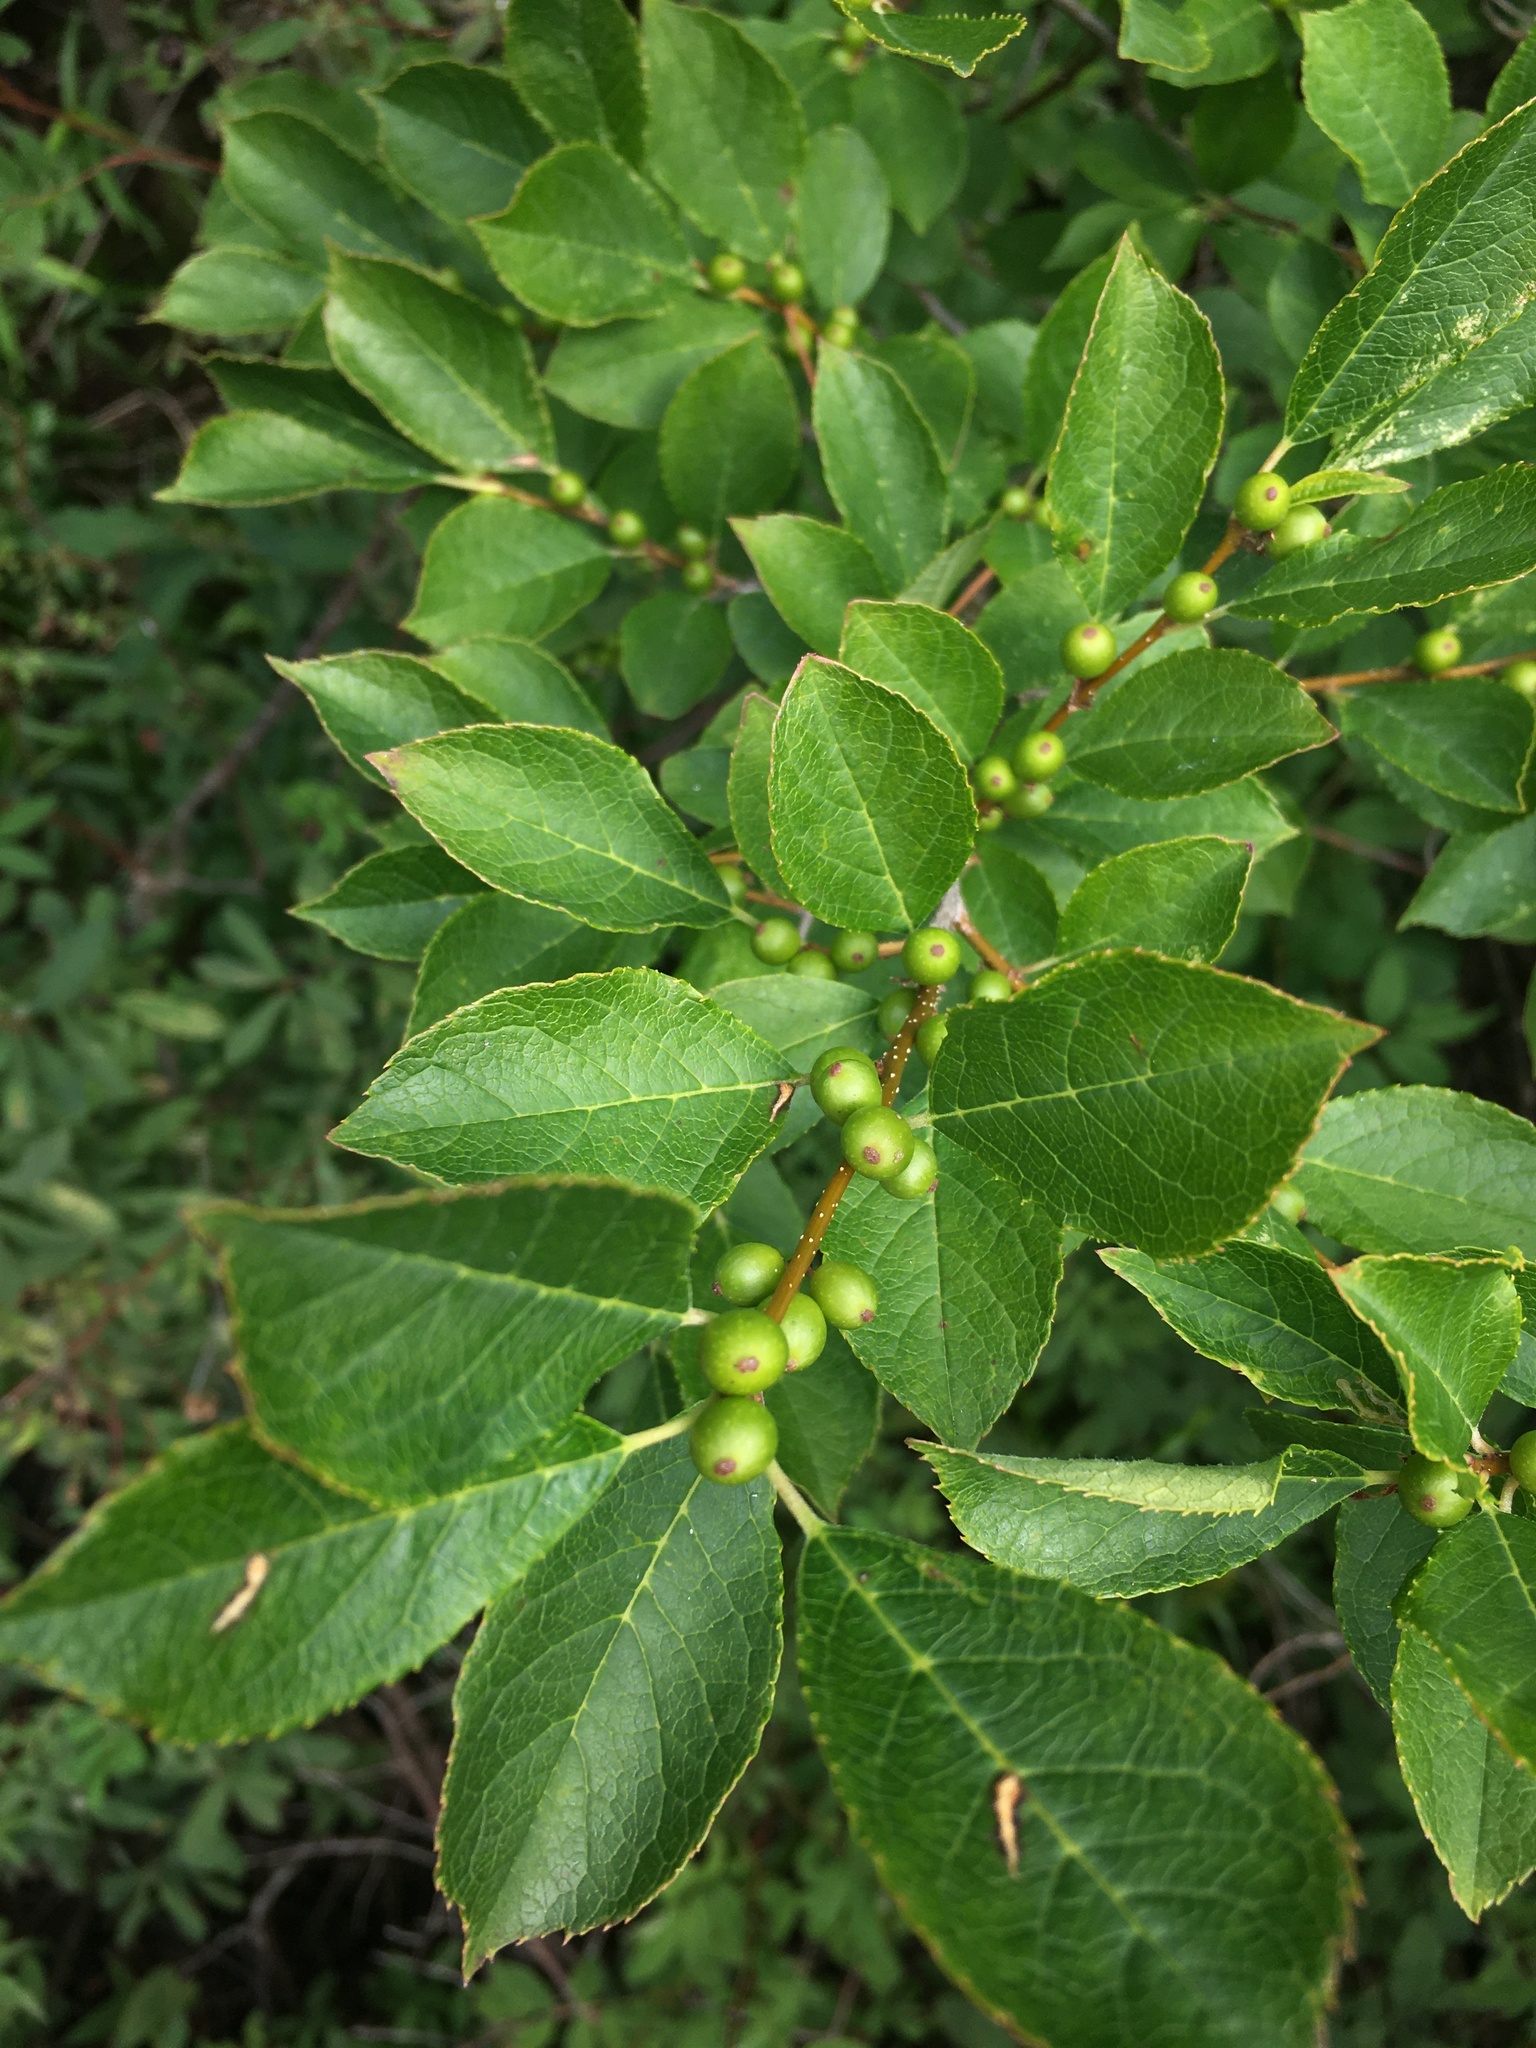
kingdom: Plantae
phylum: Tracheophyta
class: Magnoliopsida
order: Aquifoliales
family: Aquifoliaceae
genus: Ilex
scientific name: Ilex verticillata
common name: Virginia winterberry
